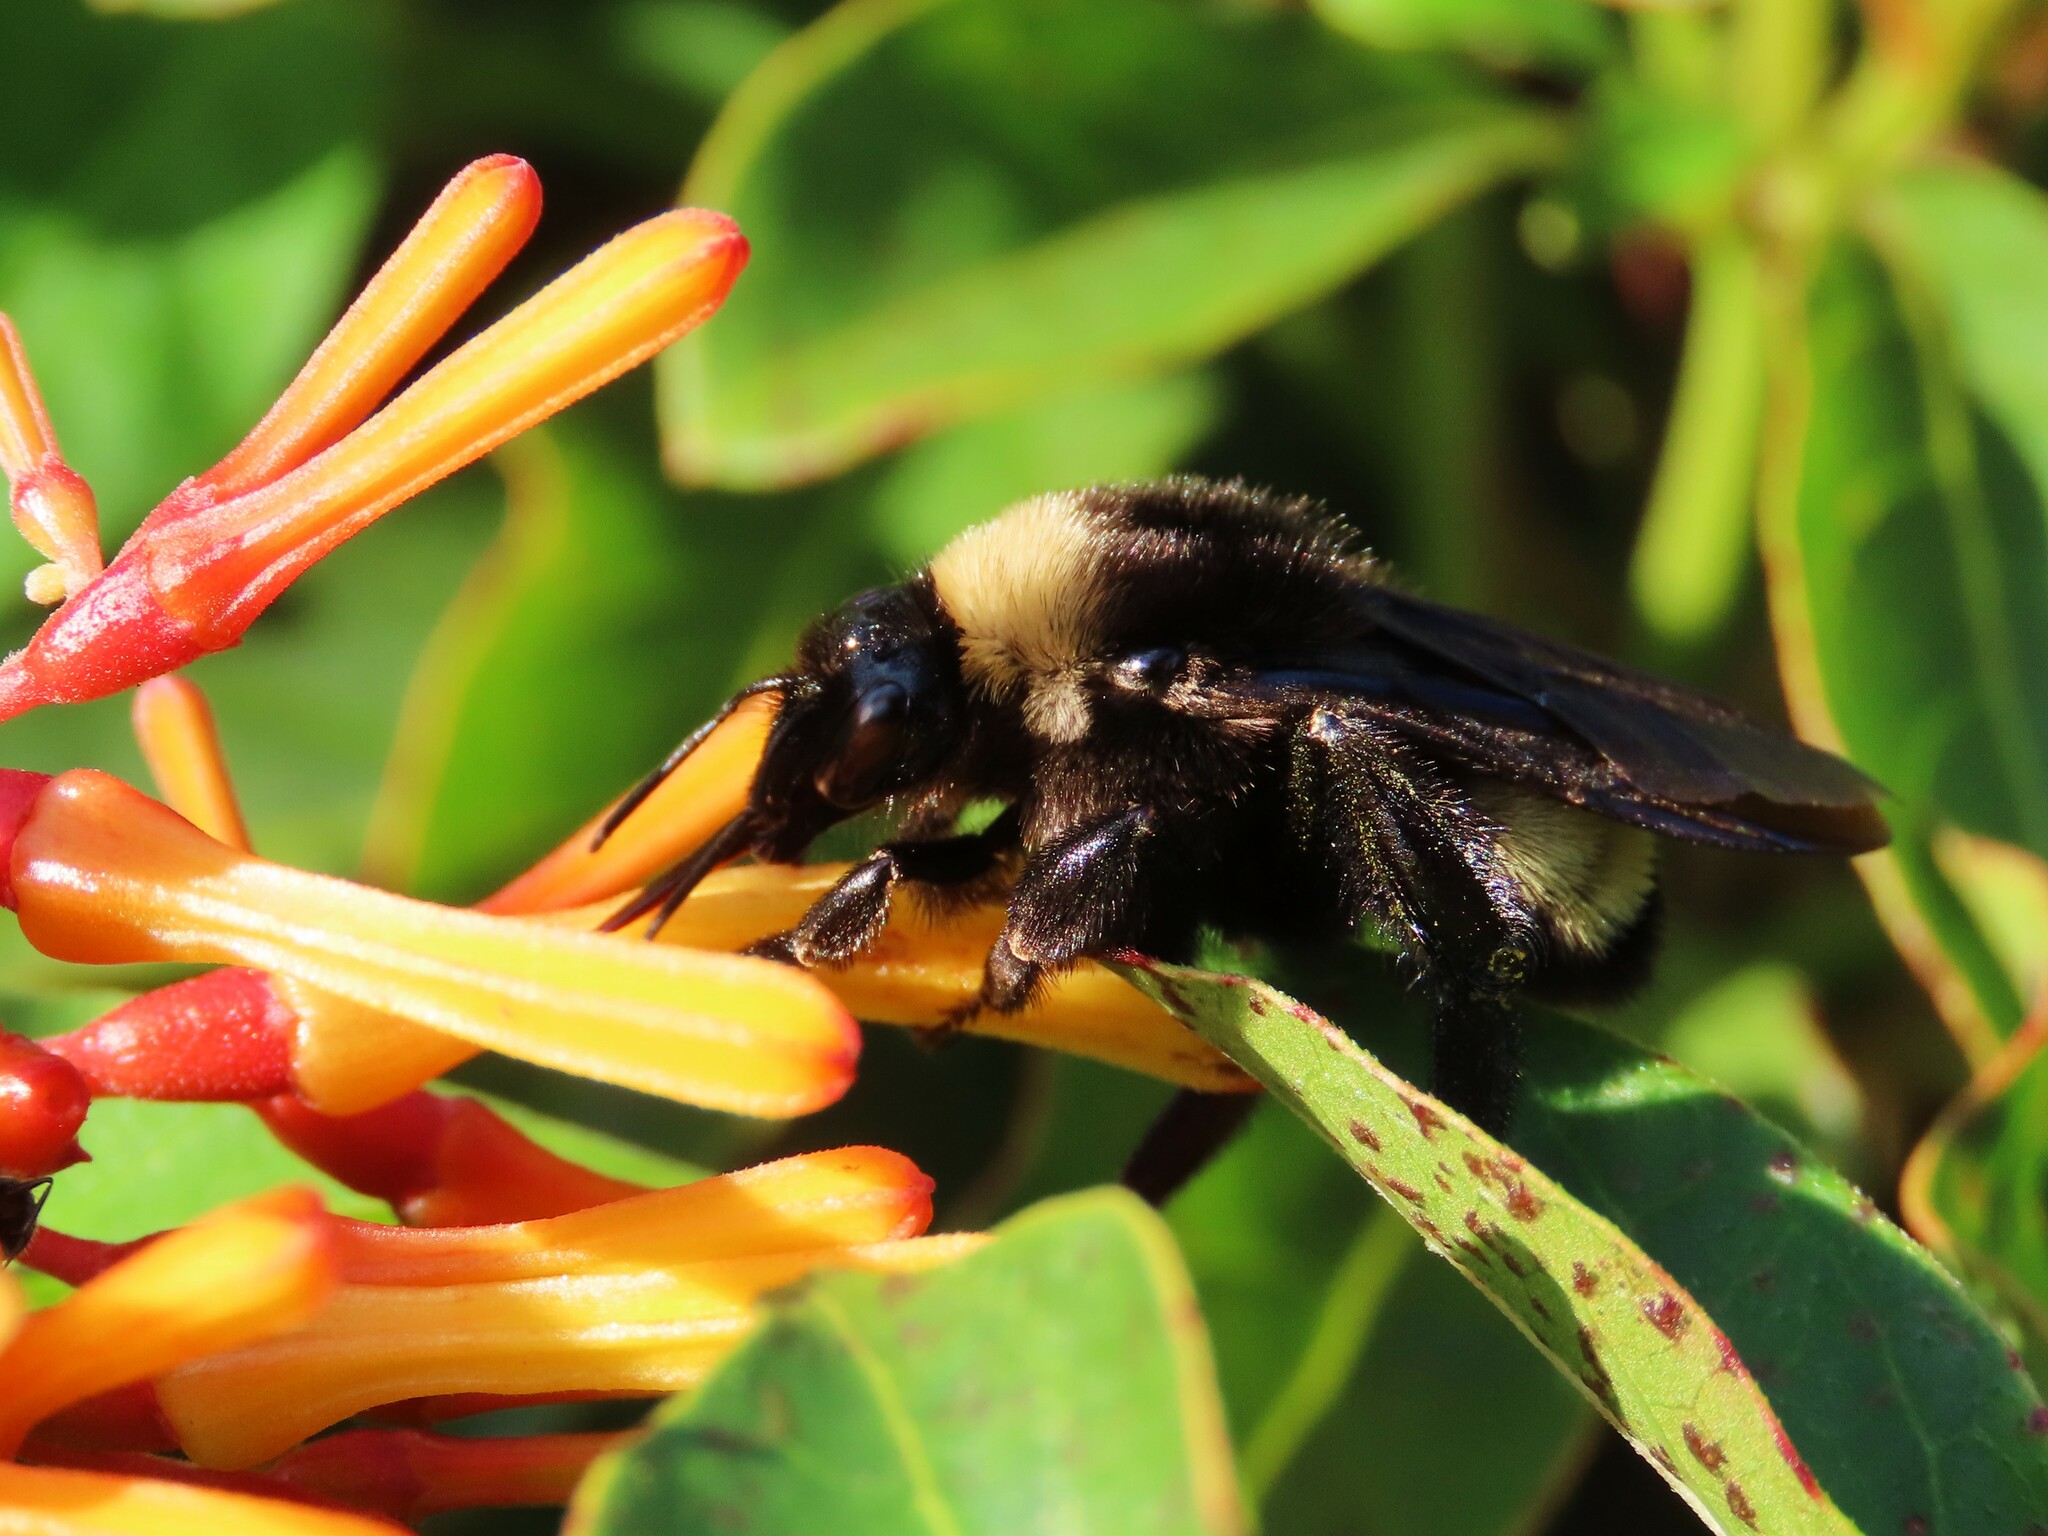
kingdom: Animalia
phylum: Arthropoda
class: Insecta
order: Hymenoptera
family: Apidae
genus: Bombus
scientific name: Bombus pensylvanicus
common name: Bumble bee
